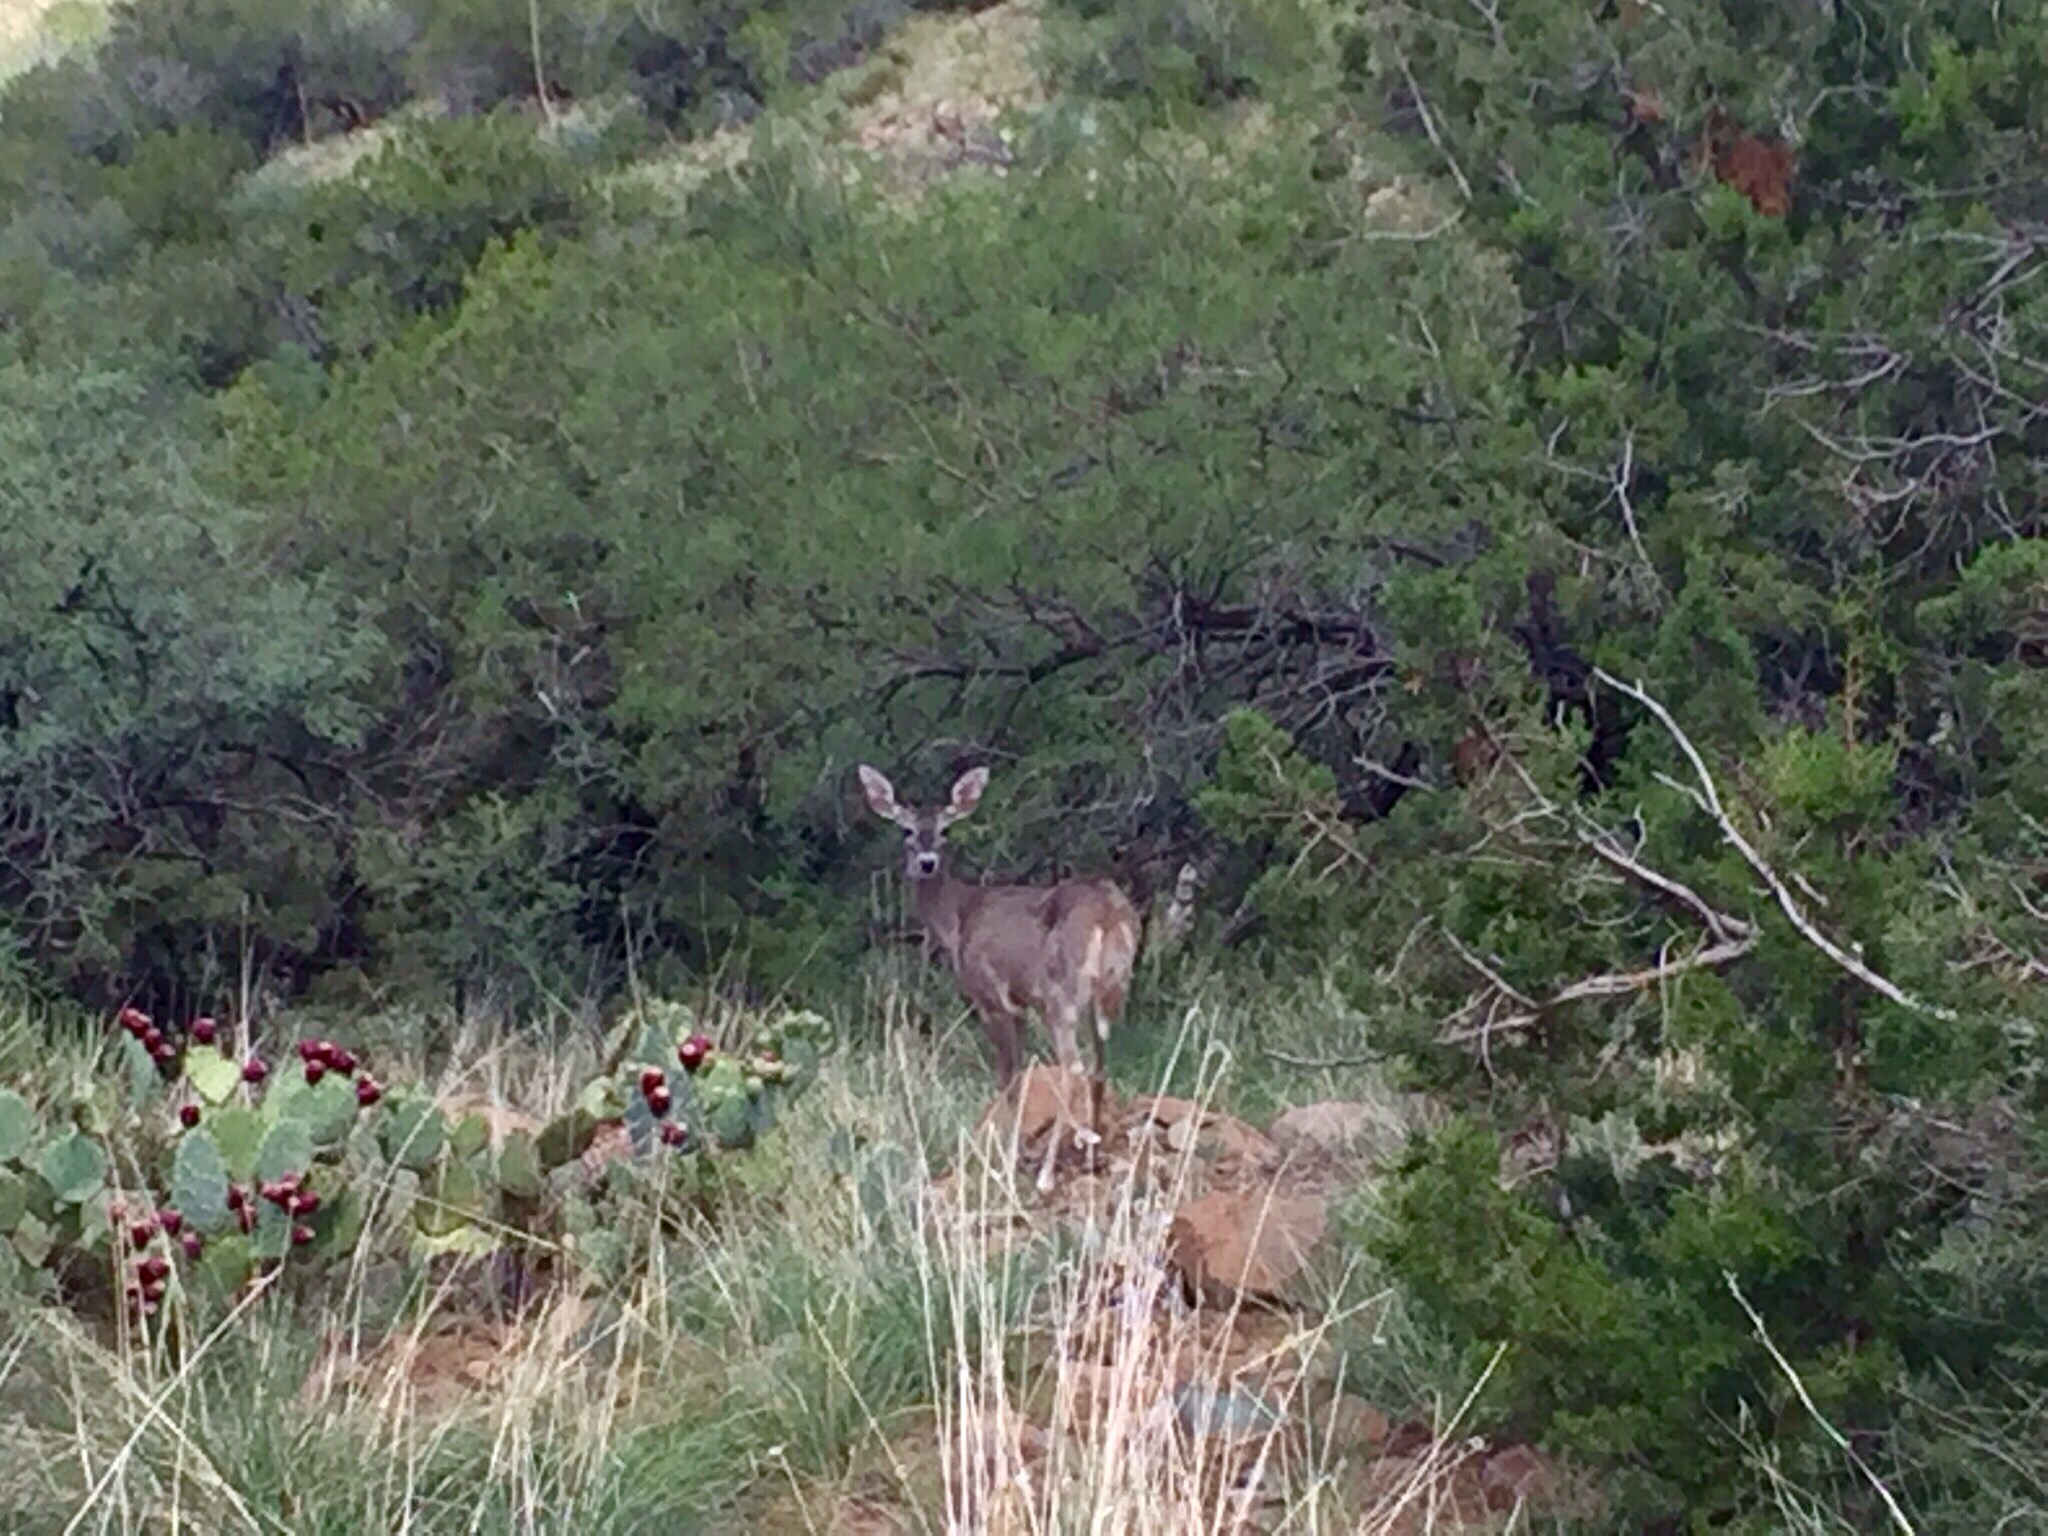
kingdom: Animalia
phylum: Chordata
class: Mammalia
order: Artiodactyla
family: Cervidae
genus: Odocoileus
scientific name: Odocoileus virginianus
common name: White-tailed deer
